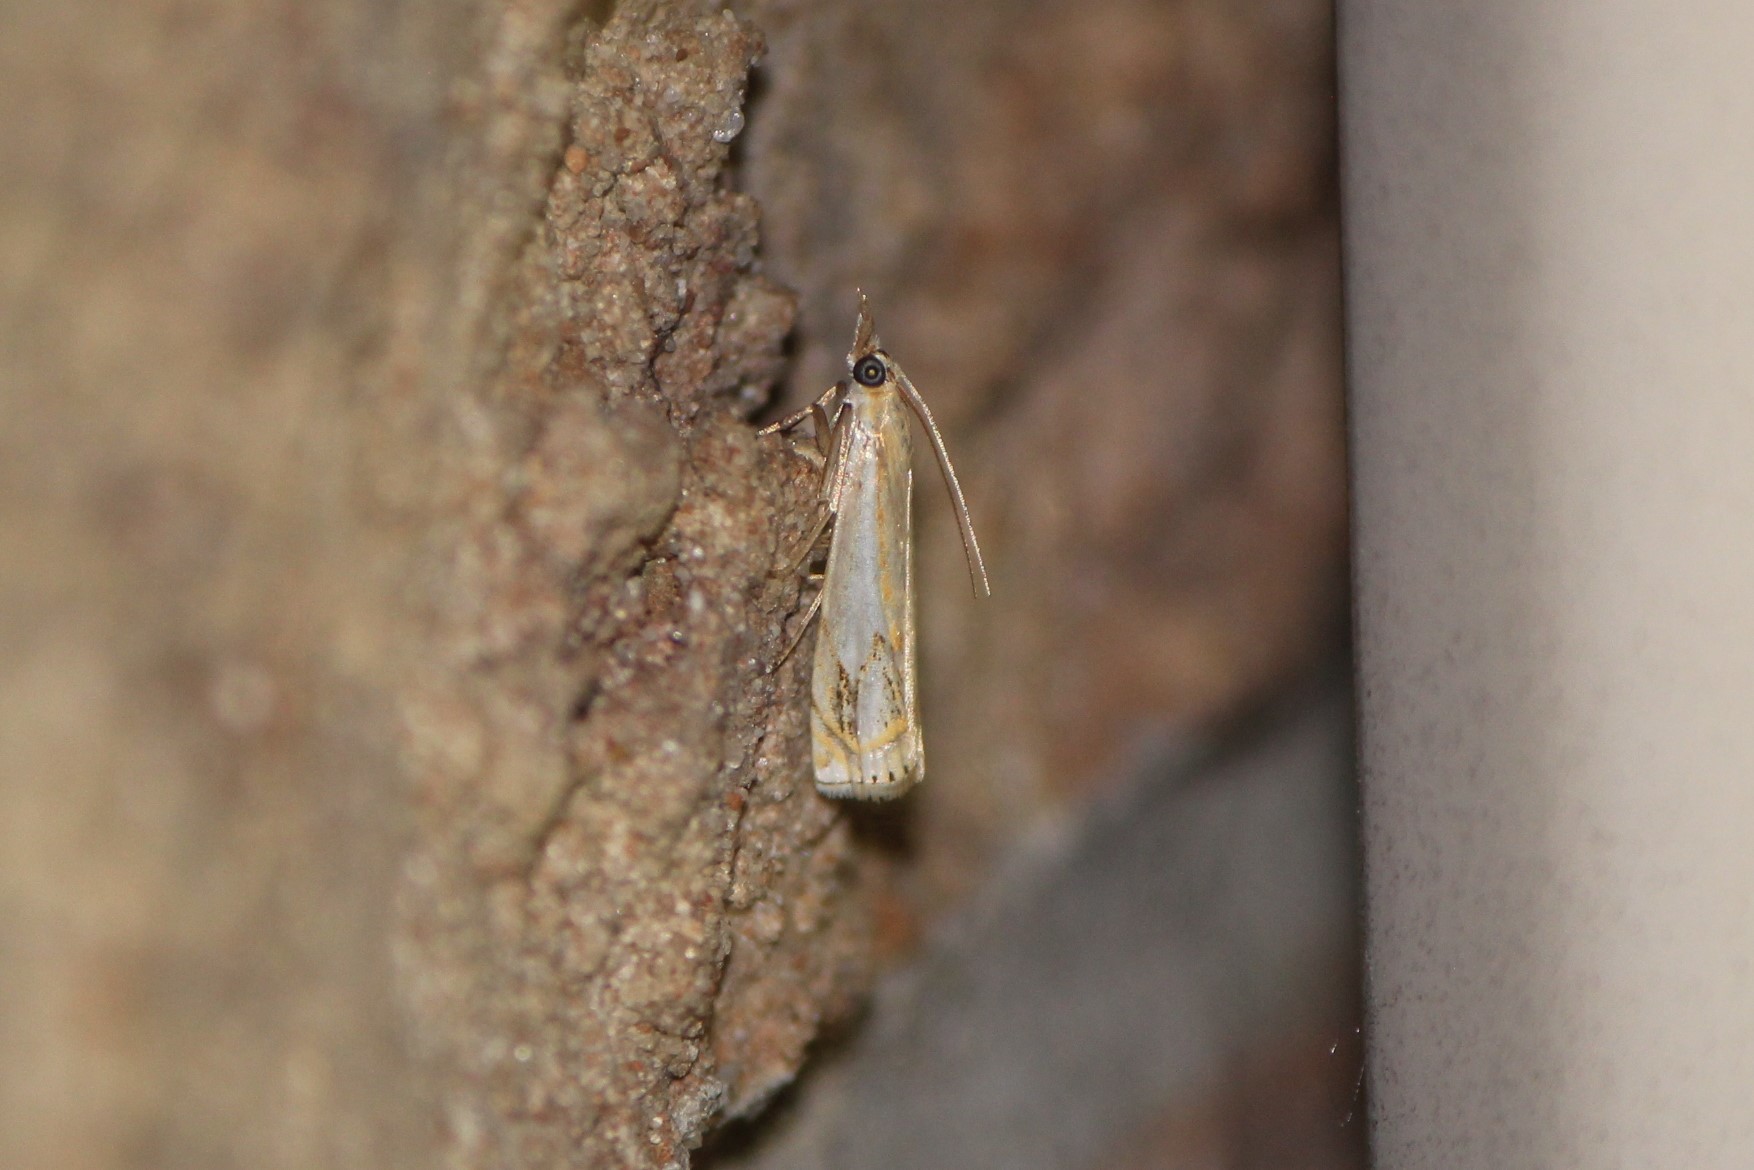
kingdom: Animalia
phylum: Arthropoda
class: Insecta
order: Lepidoptera
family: Crambidae
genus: Crambus
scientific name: Crambus agitatellus
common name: Double-banded grass-veneer
